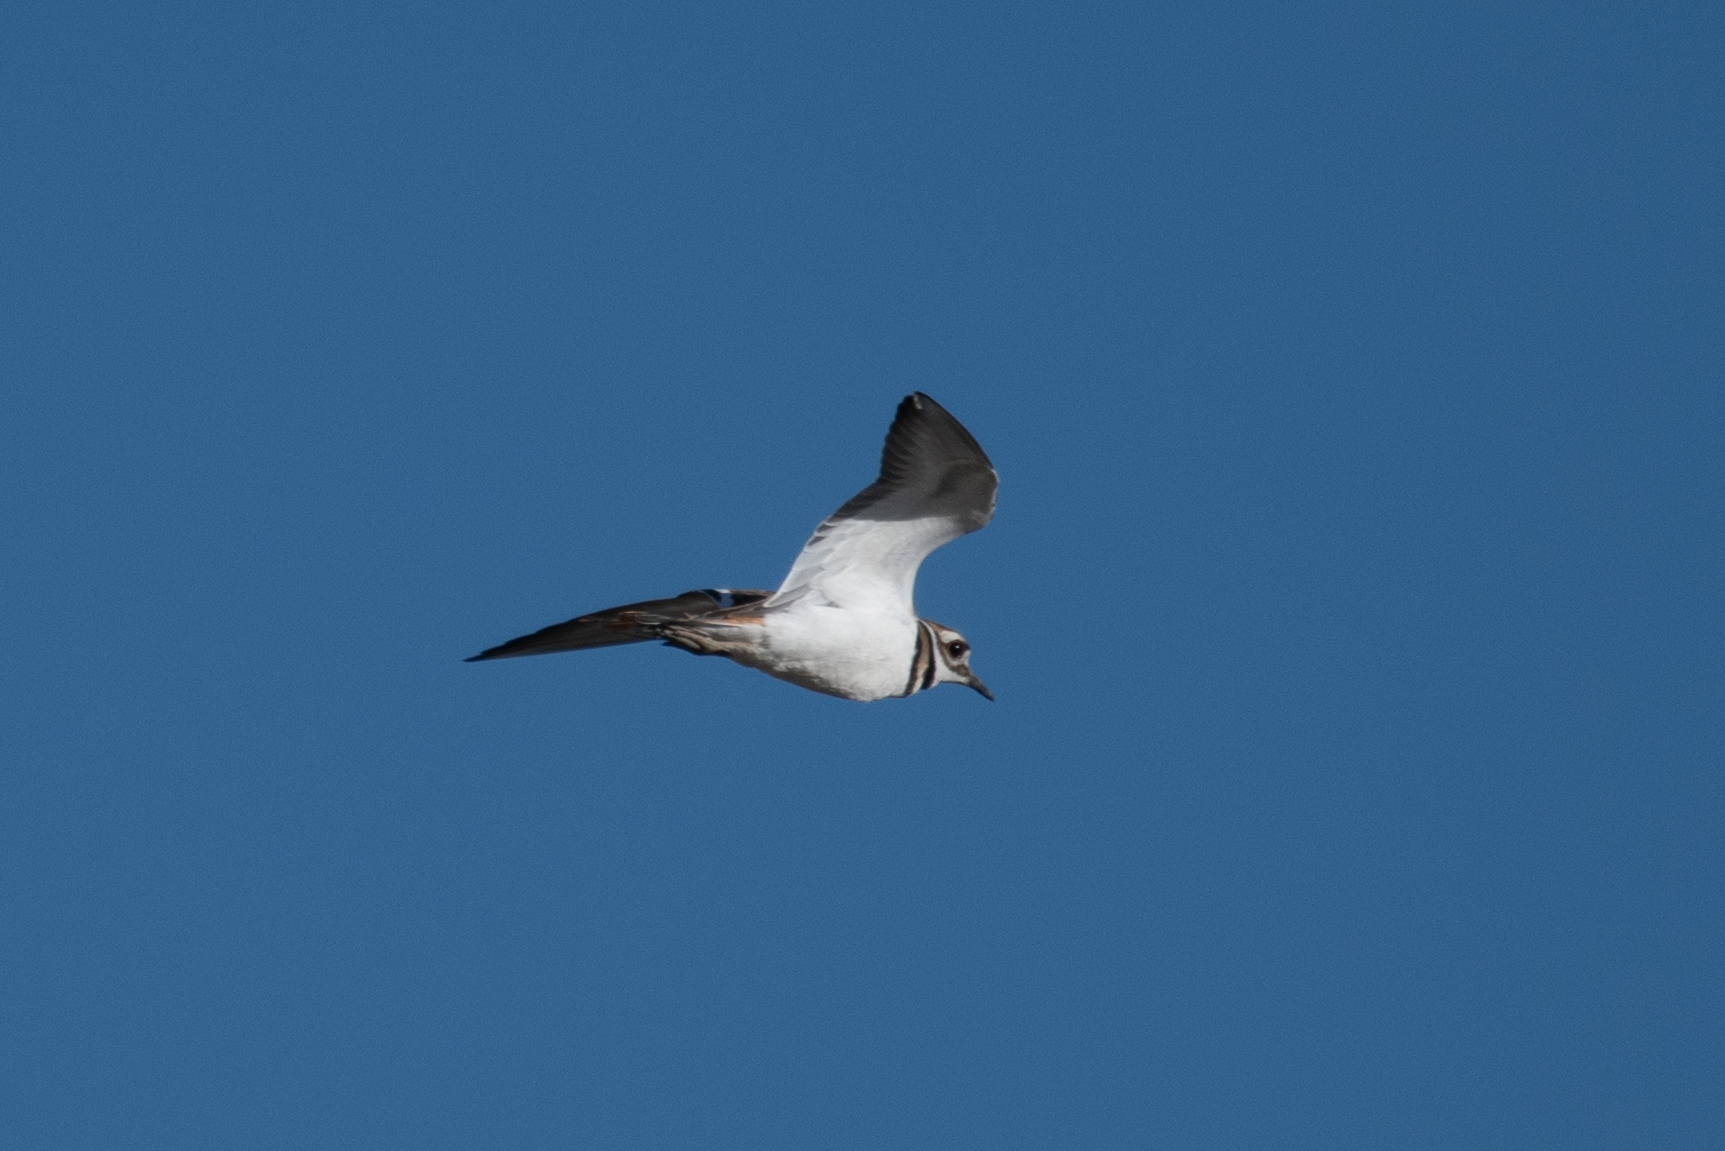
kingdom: Animalia
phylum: Chordata
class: Aves
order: Charadriiformes
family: Charadriidae
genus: Charadrius
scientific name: Charadrius vociferus
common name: Killdeer
